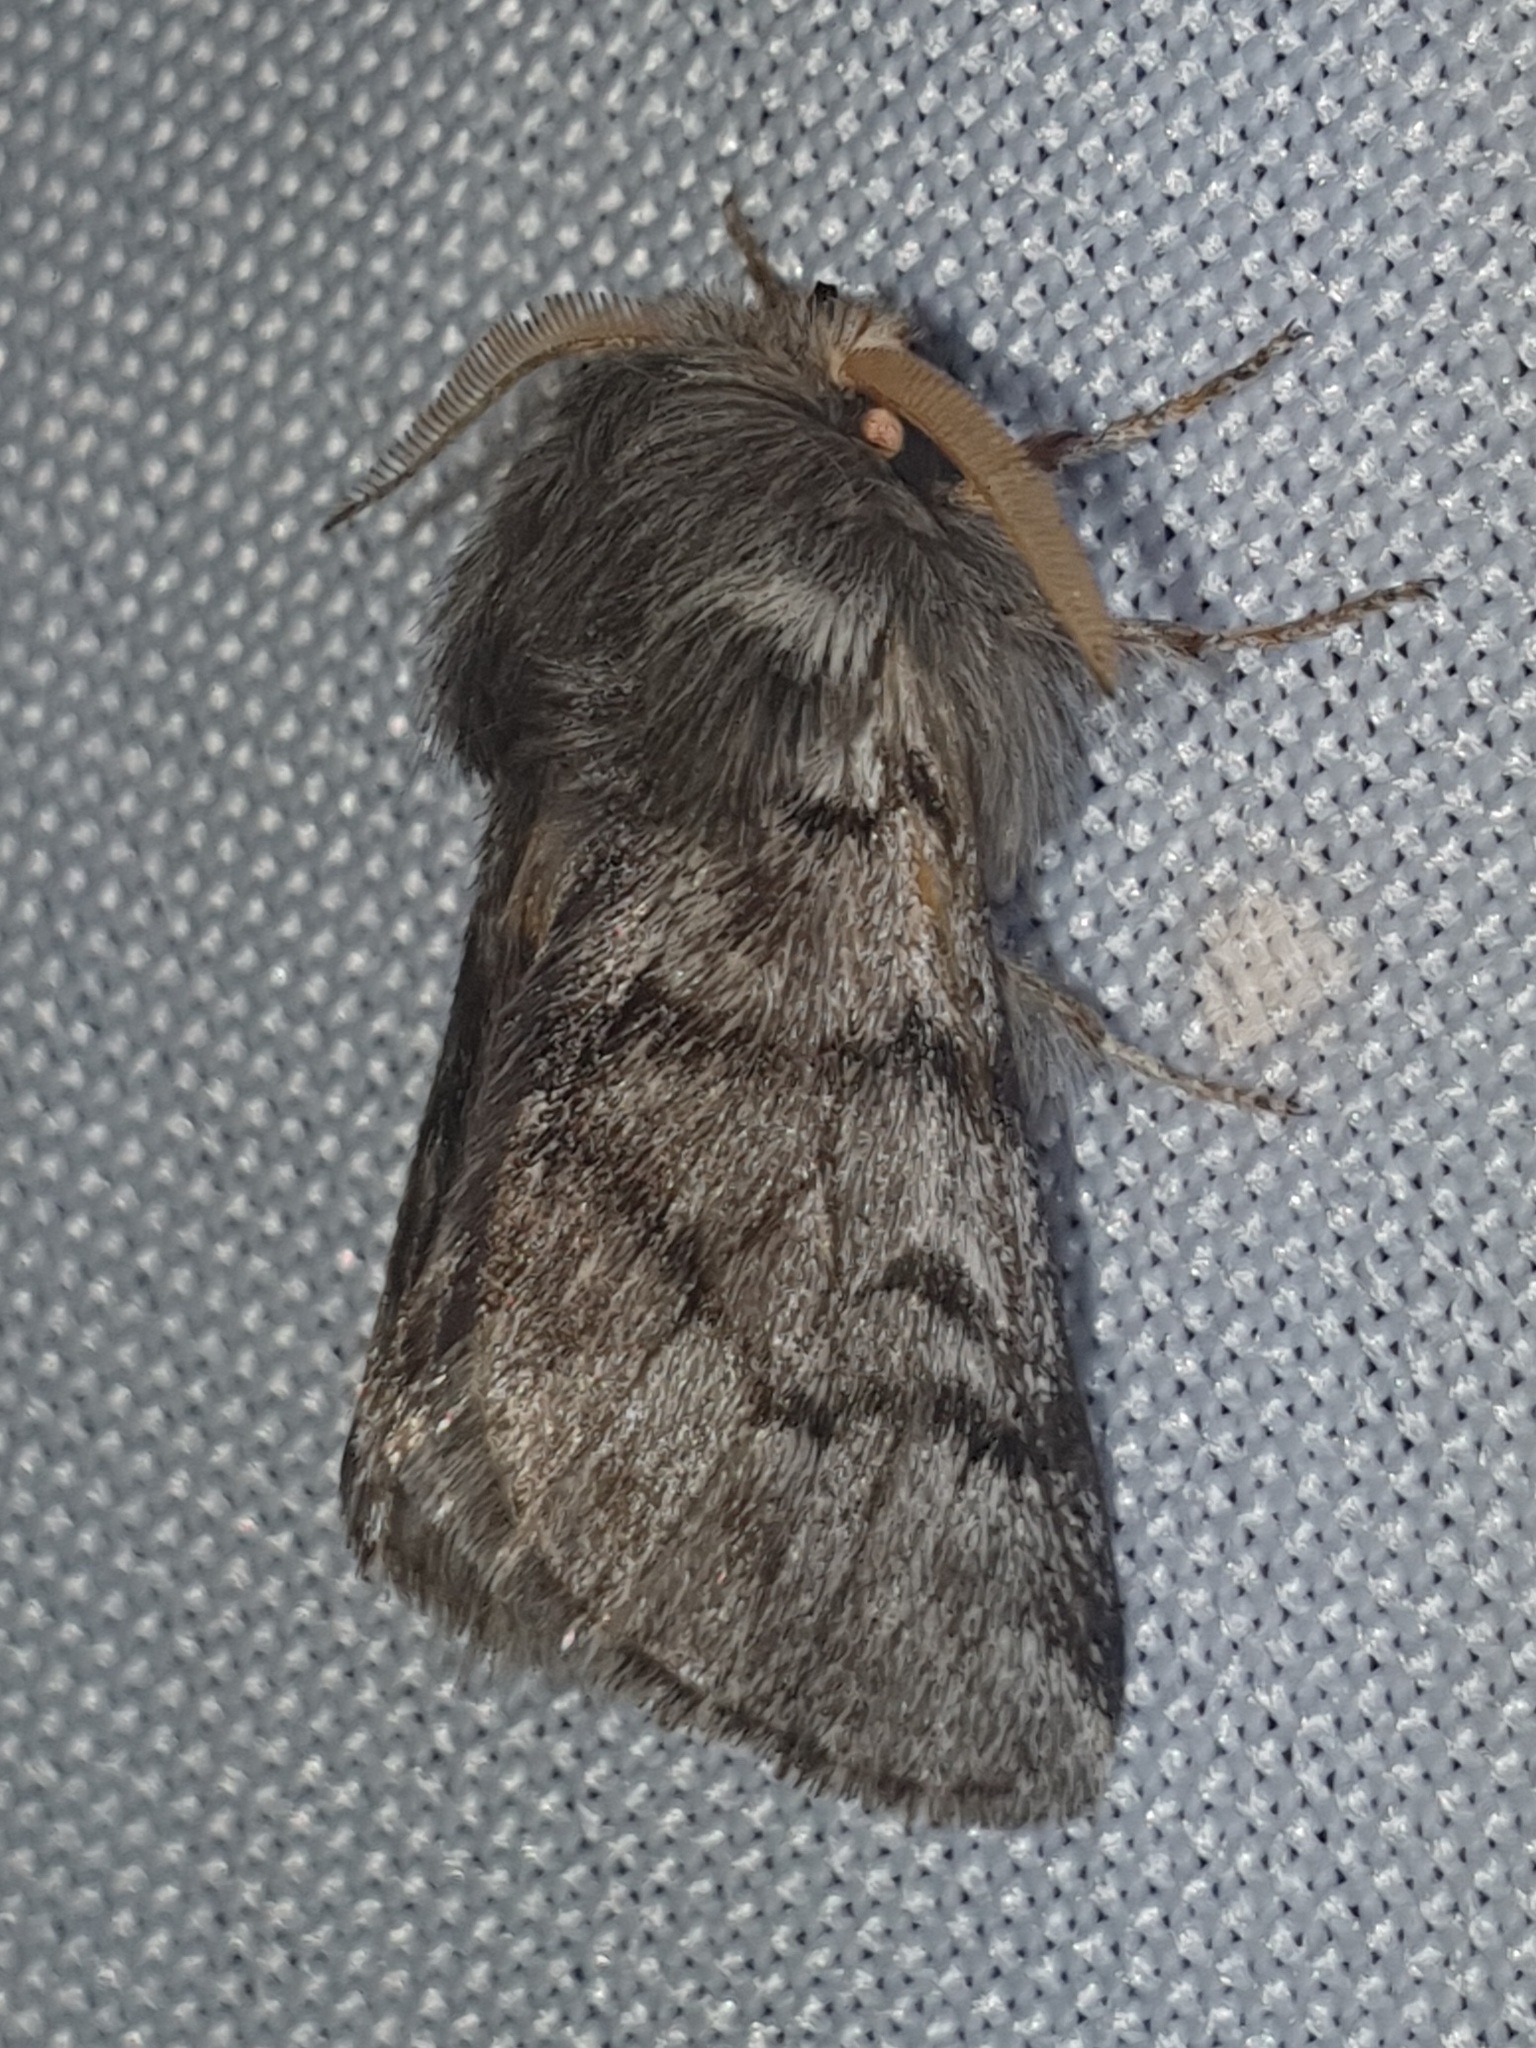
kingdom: Animalia
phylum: Arthropoda
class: Insecta
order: Lepidoptera
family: Notodontidae
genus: Thaumetopoea
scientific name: Thaumetopoea pityocampa
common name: Pine processionary
